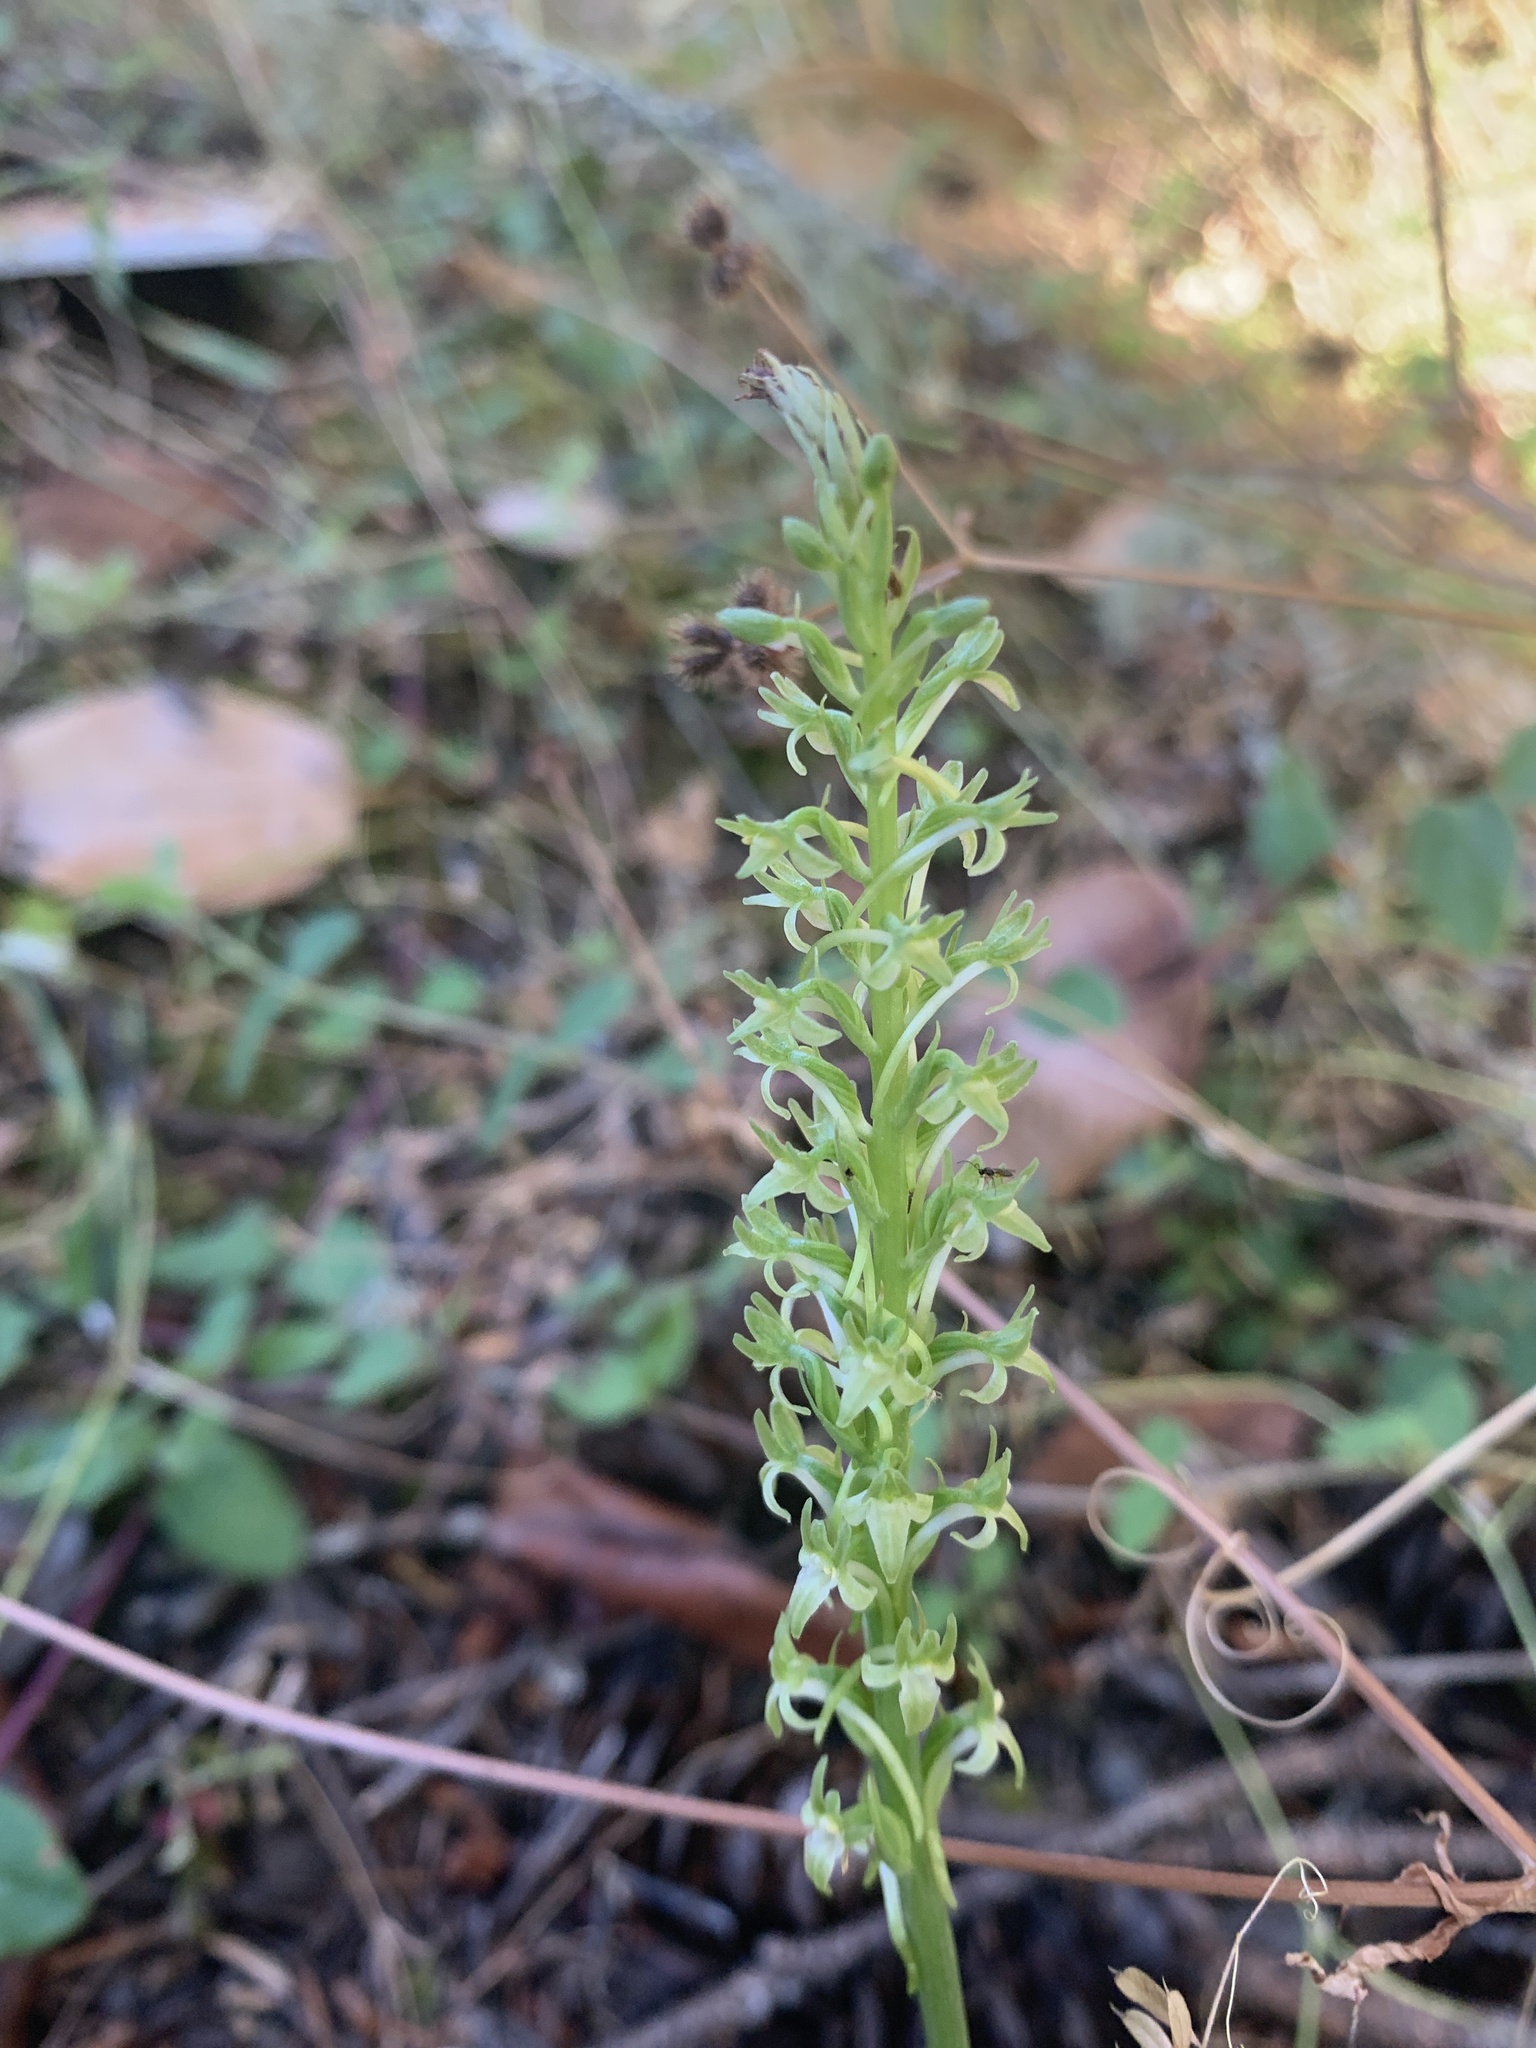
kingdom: Plantae
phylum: Tracheophyta
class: Liliopsida
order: Asparagales
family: Orchidaceae
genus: Platanthera
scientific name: Platanthera elongata
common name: Dense-flowered rein orchid
